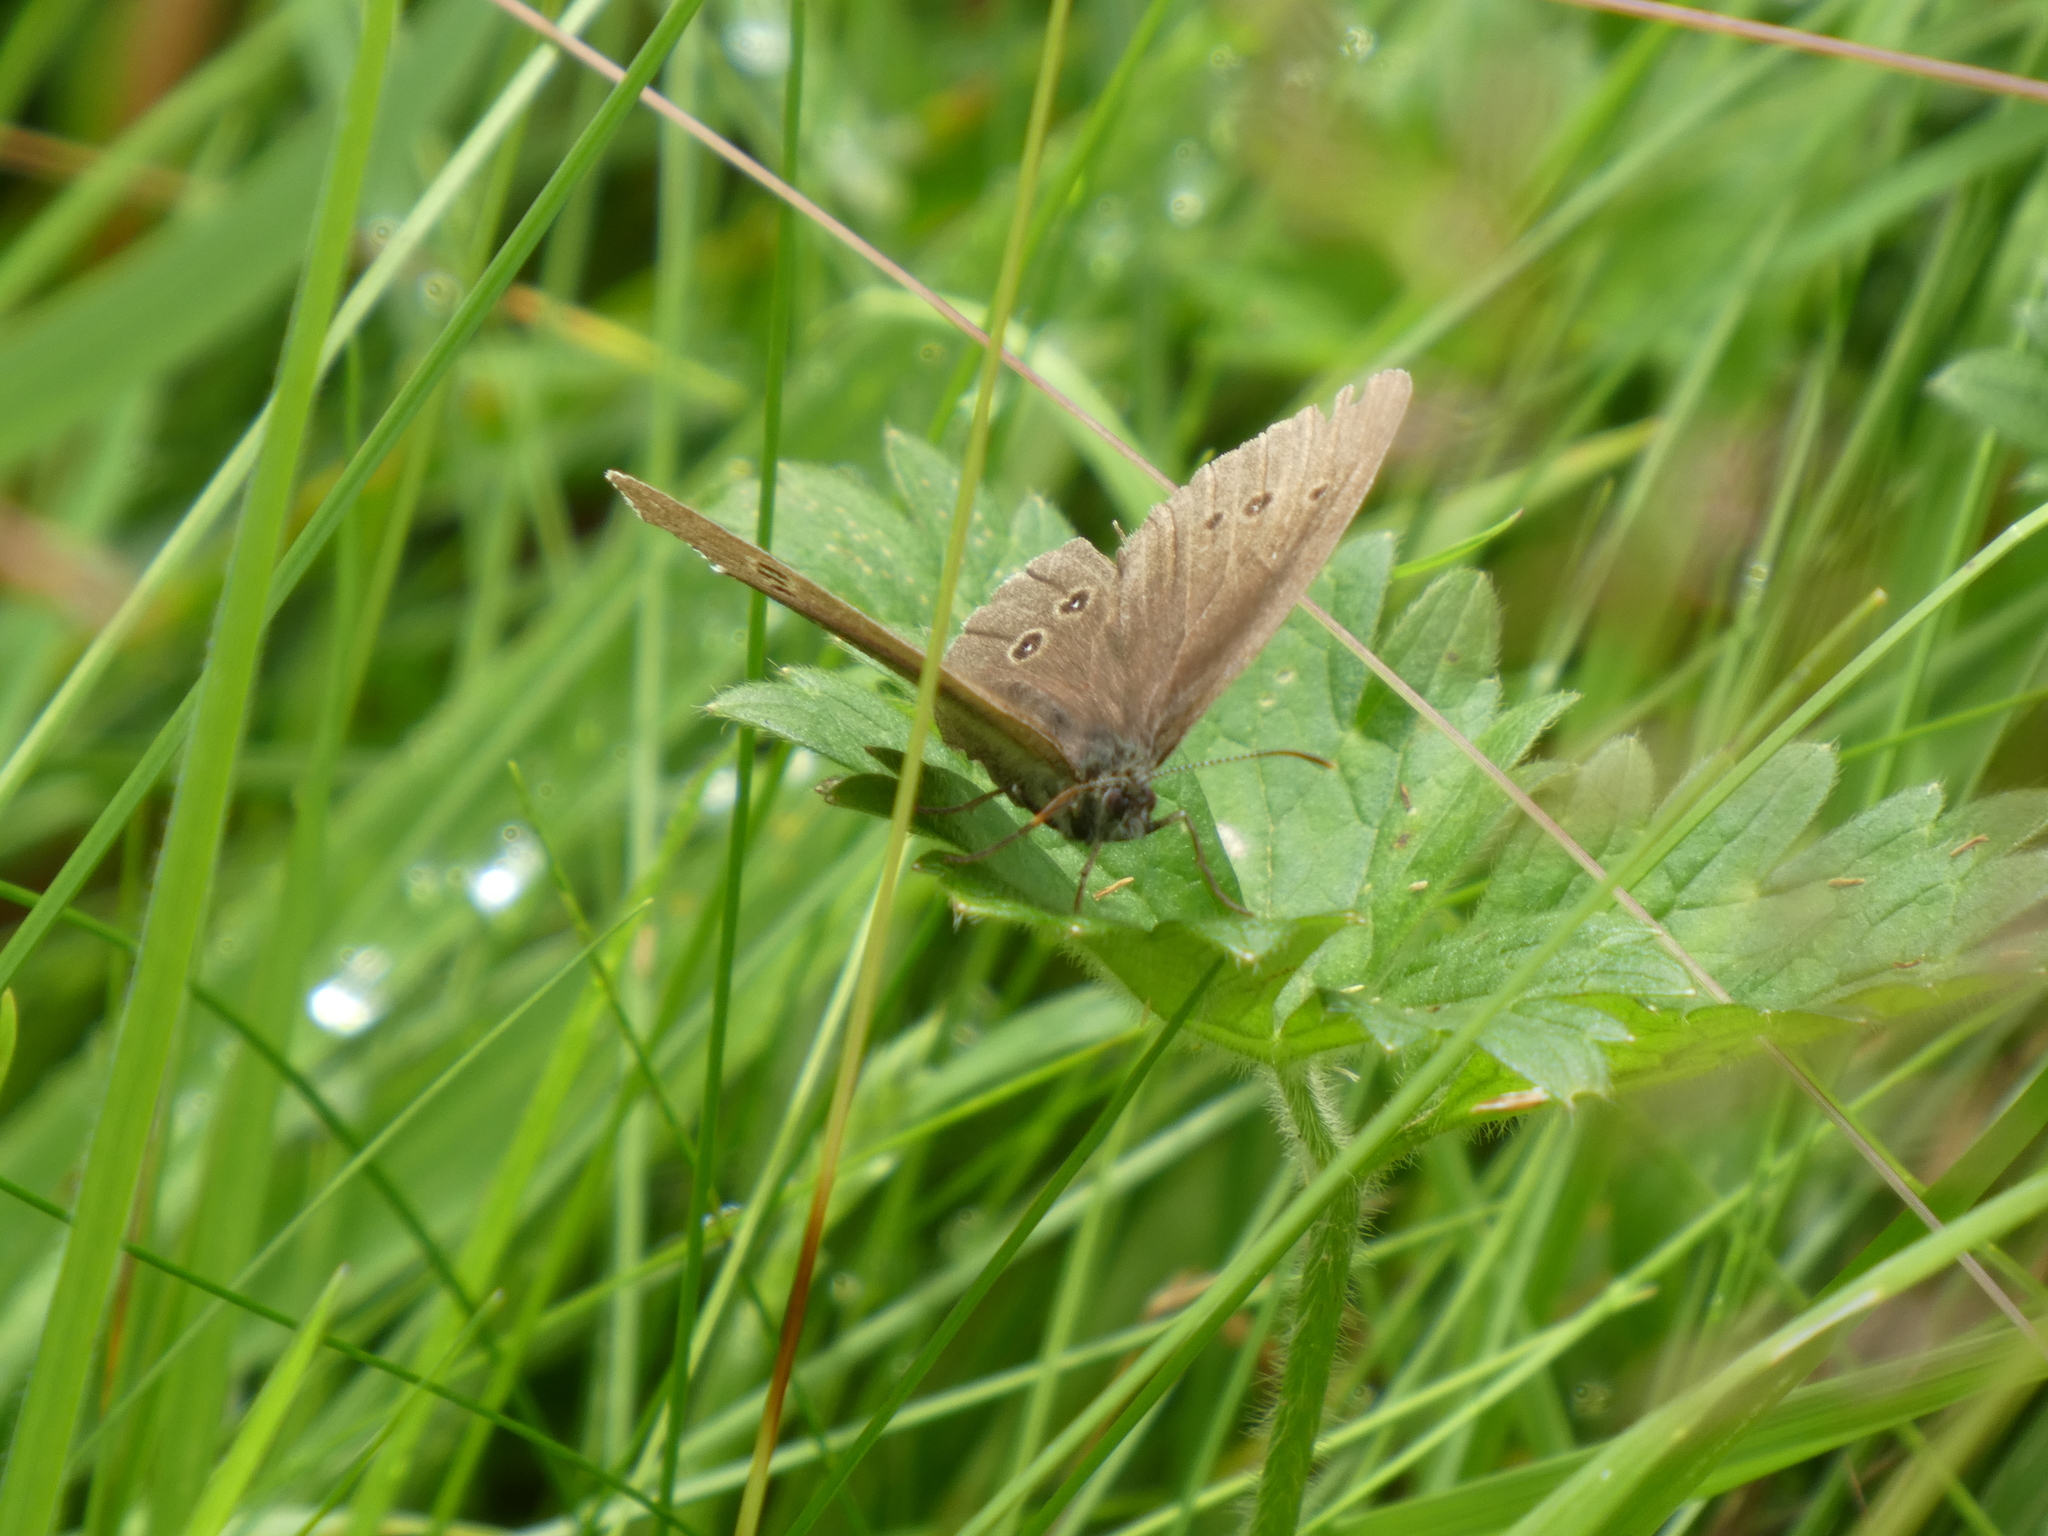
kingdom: Animalia
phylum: Arthropoda
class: Insecta
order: Lepidoptera
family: Nymphalidae
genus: Aphantopus
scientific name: Aphantopus hyperantus
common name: Ringlet
